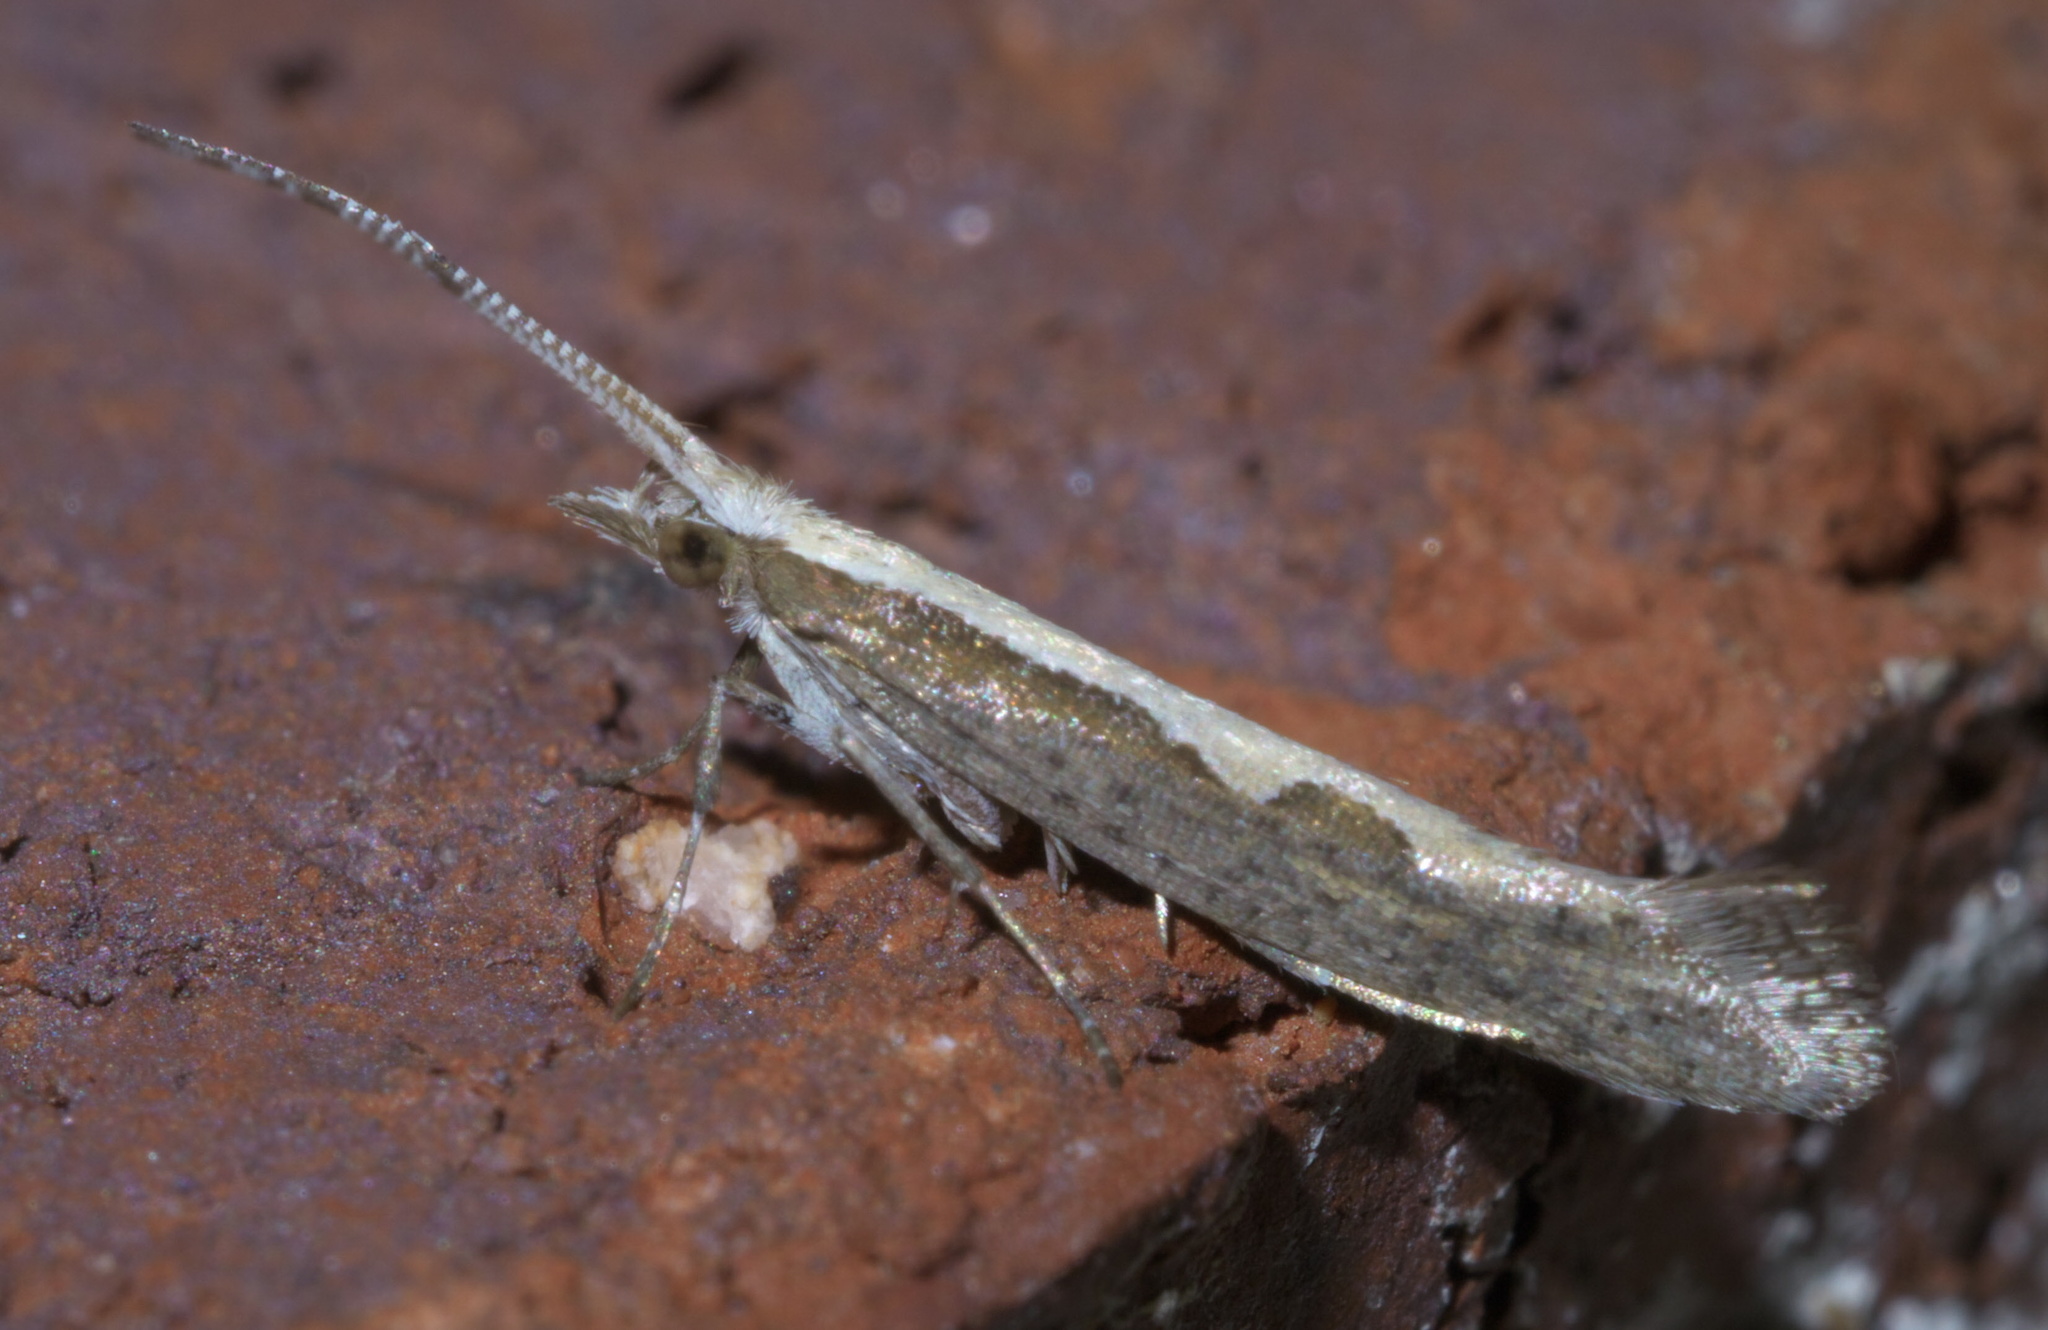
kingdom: Animalia
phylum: Arthropoda
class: Insecta
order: Lepidoptera
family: Plutellidae
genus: Plutella
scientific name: Plutella xylostella
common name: Diamond-back moth
